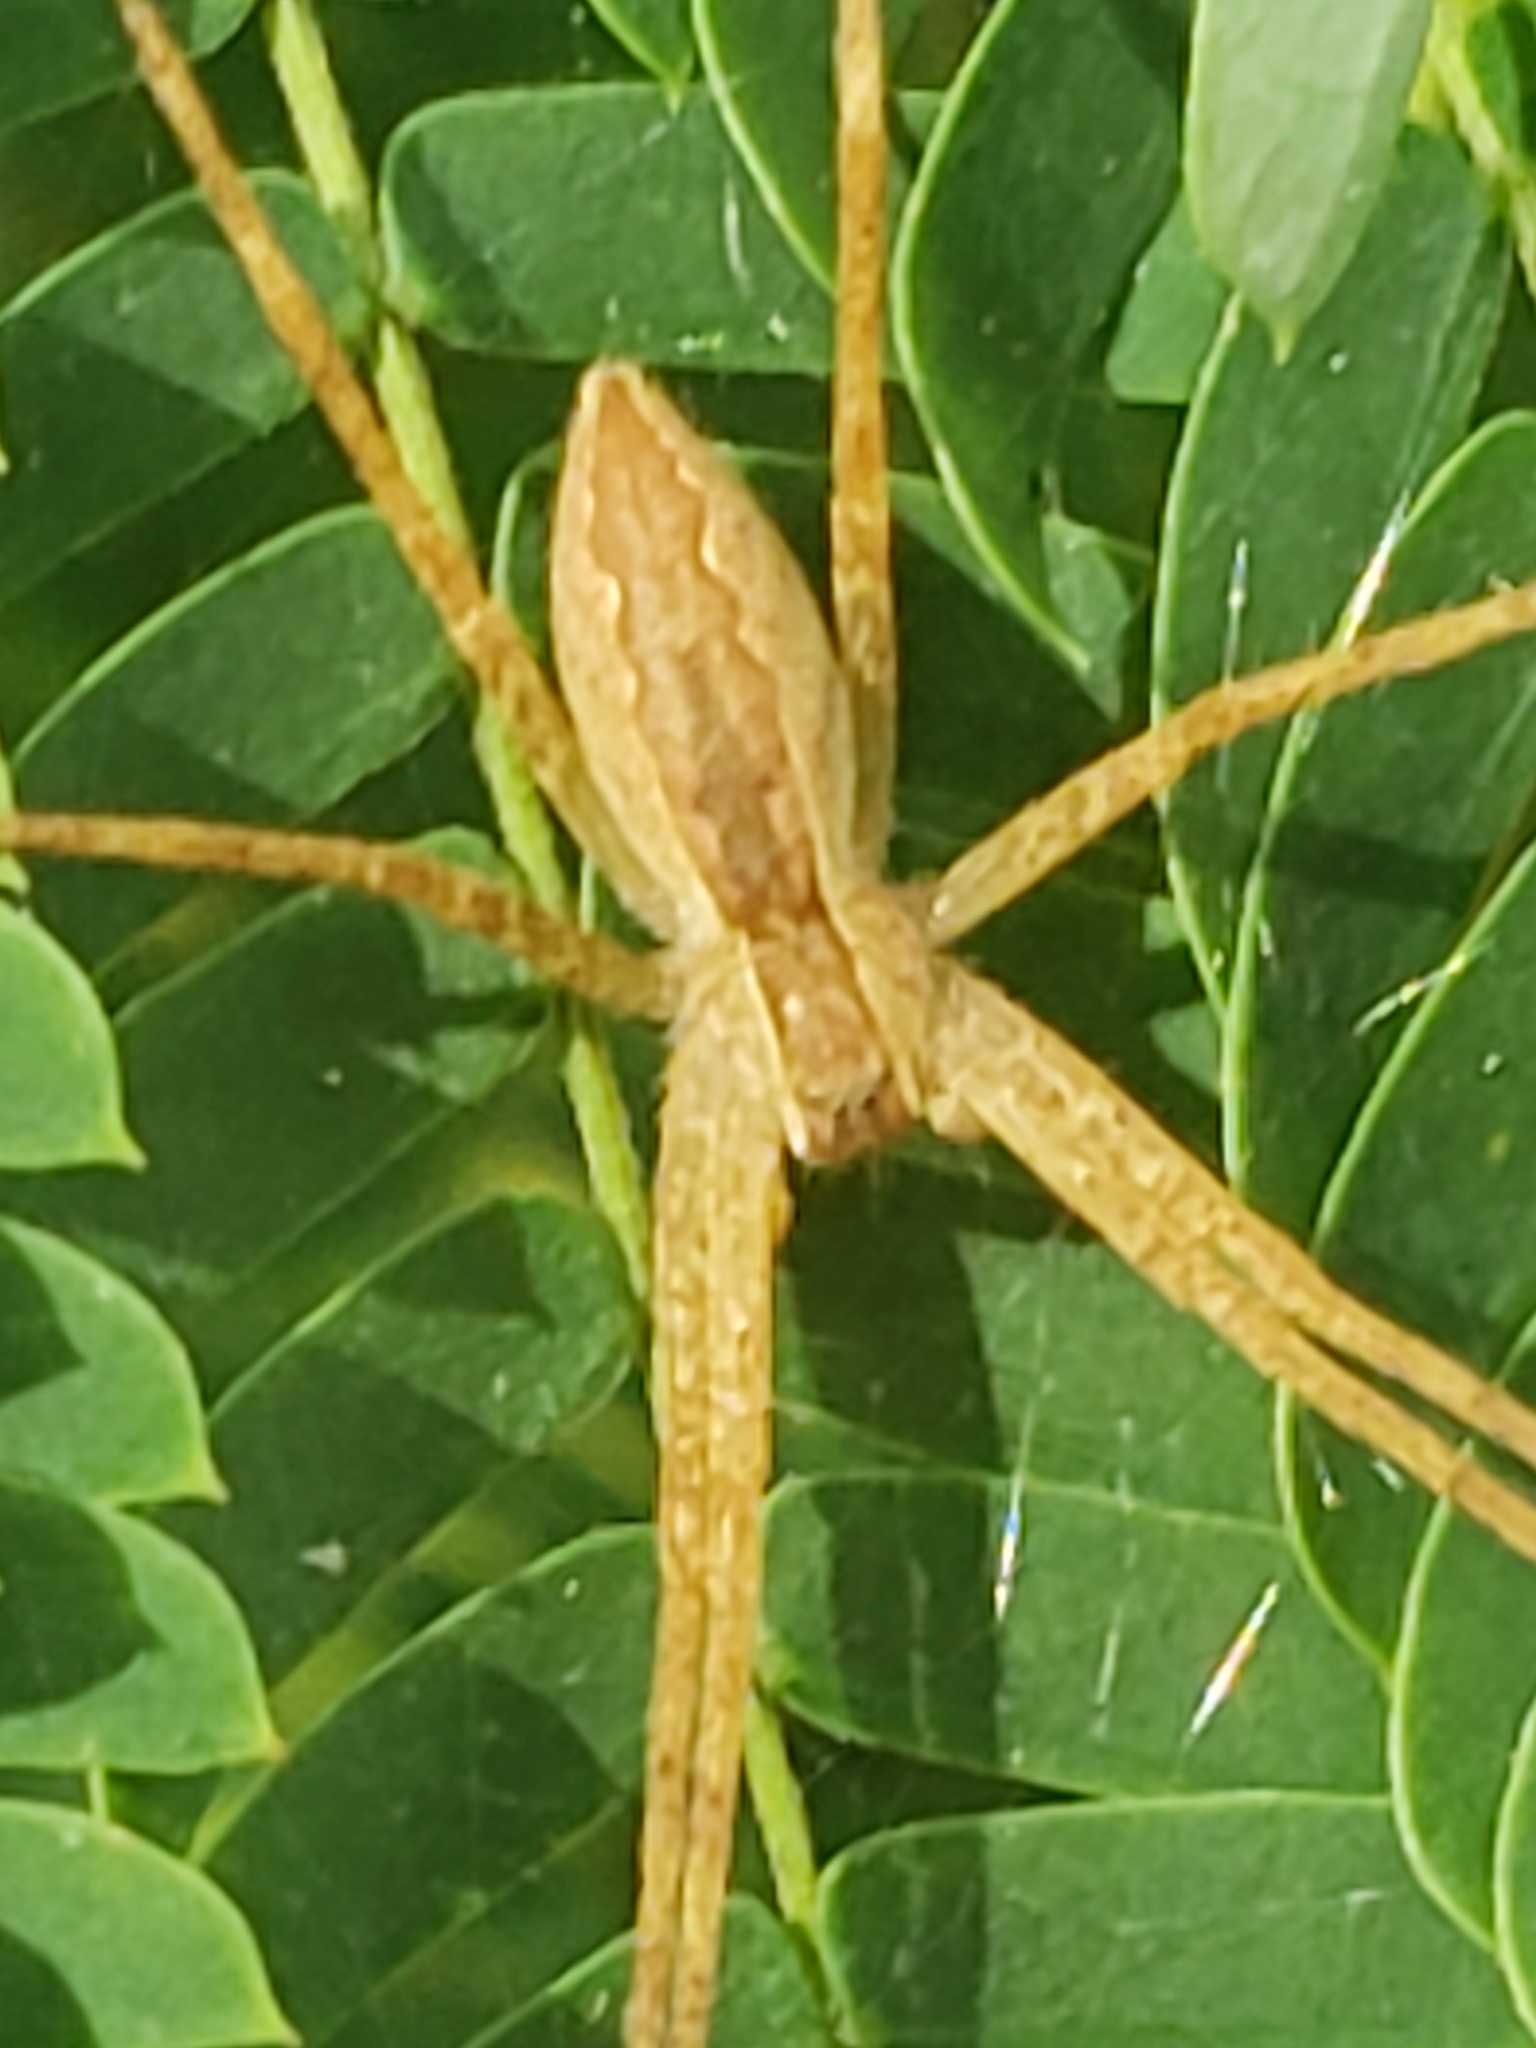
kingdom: Animalia
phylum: Arthropoda
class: Arachnida
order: Araneae
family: Pisauridae
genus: Pisaurina
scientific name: Pisaurina mira
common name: American nursery web spider
